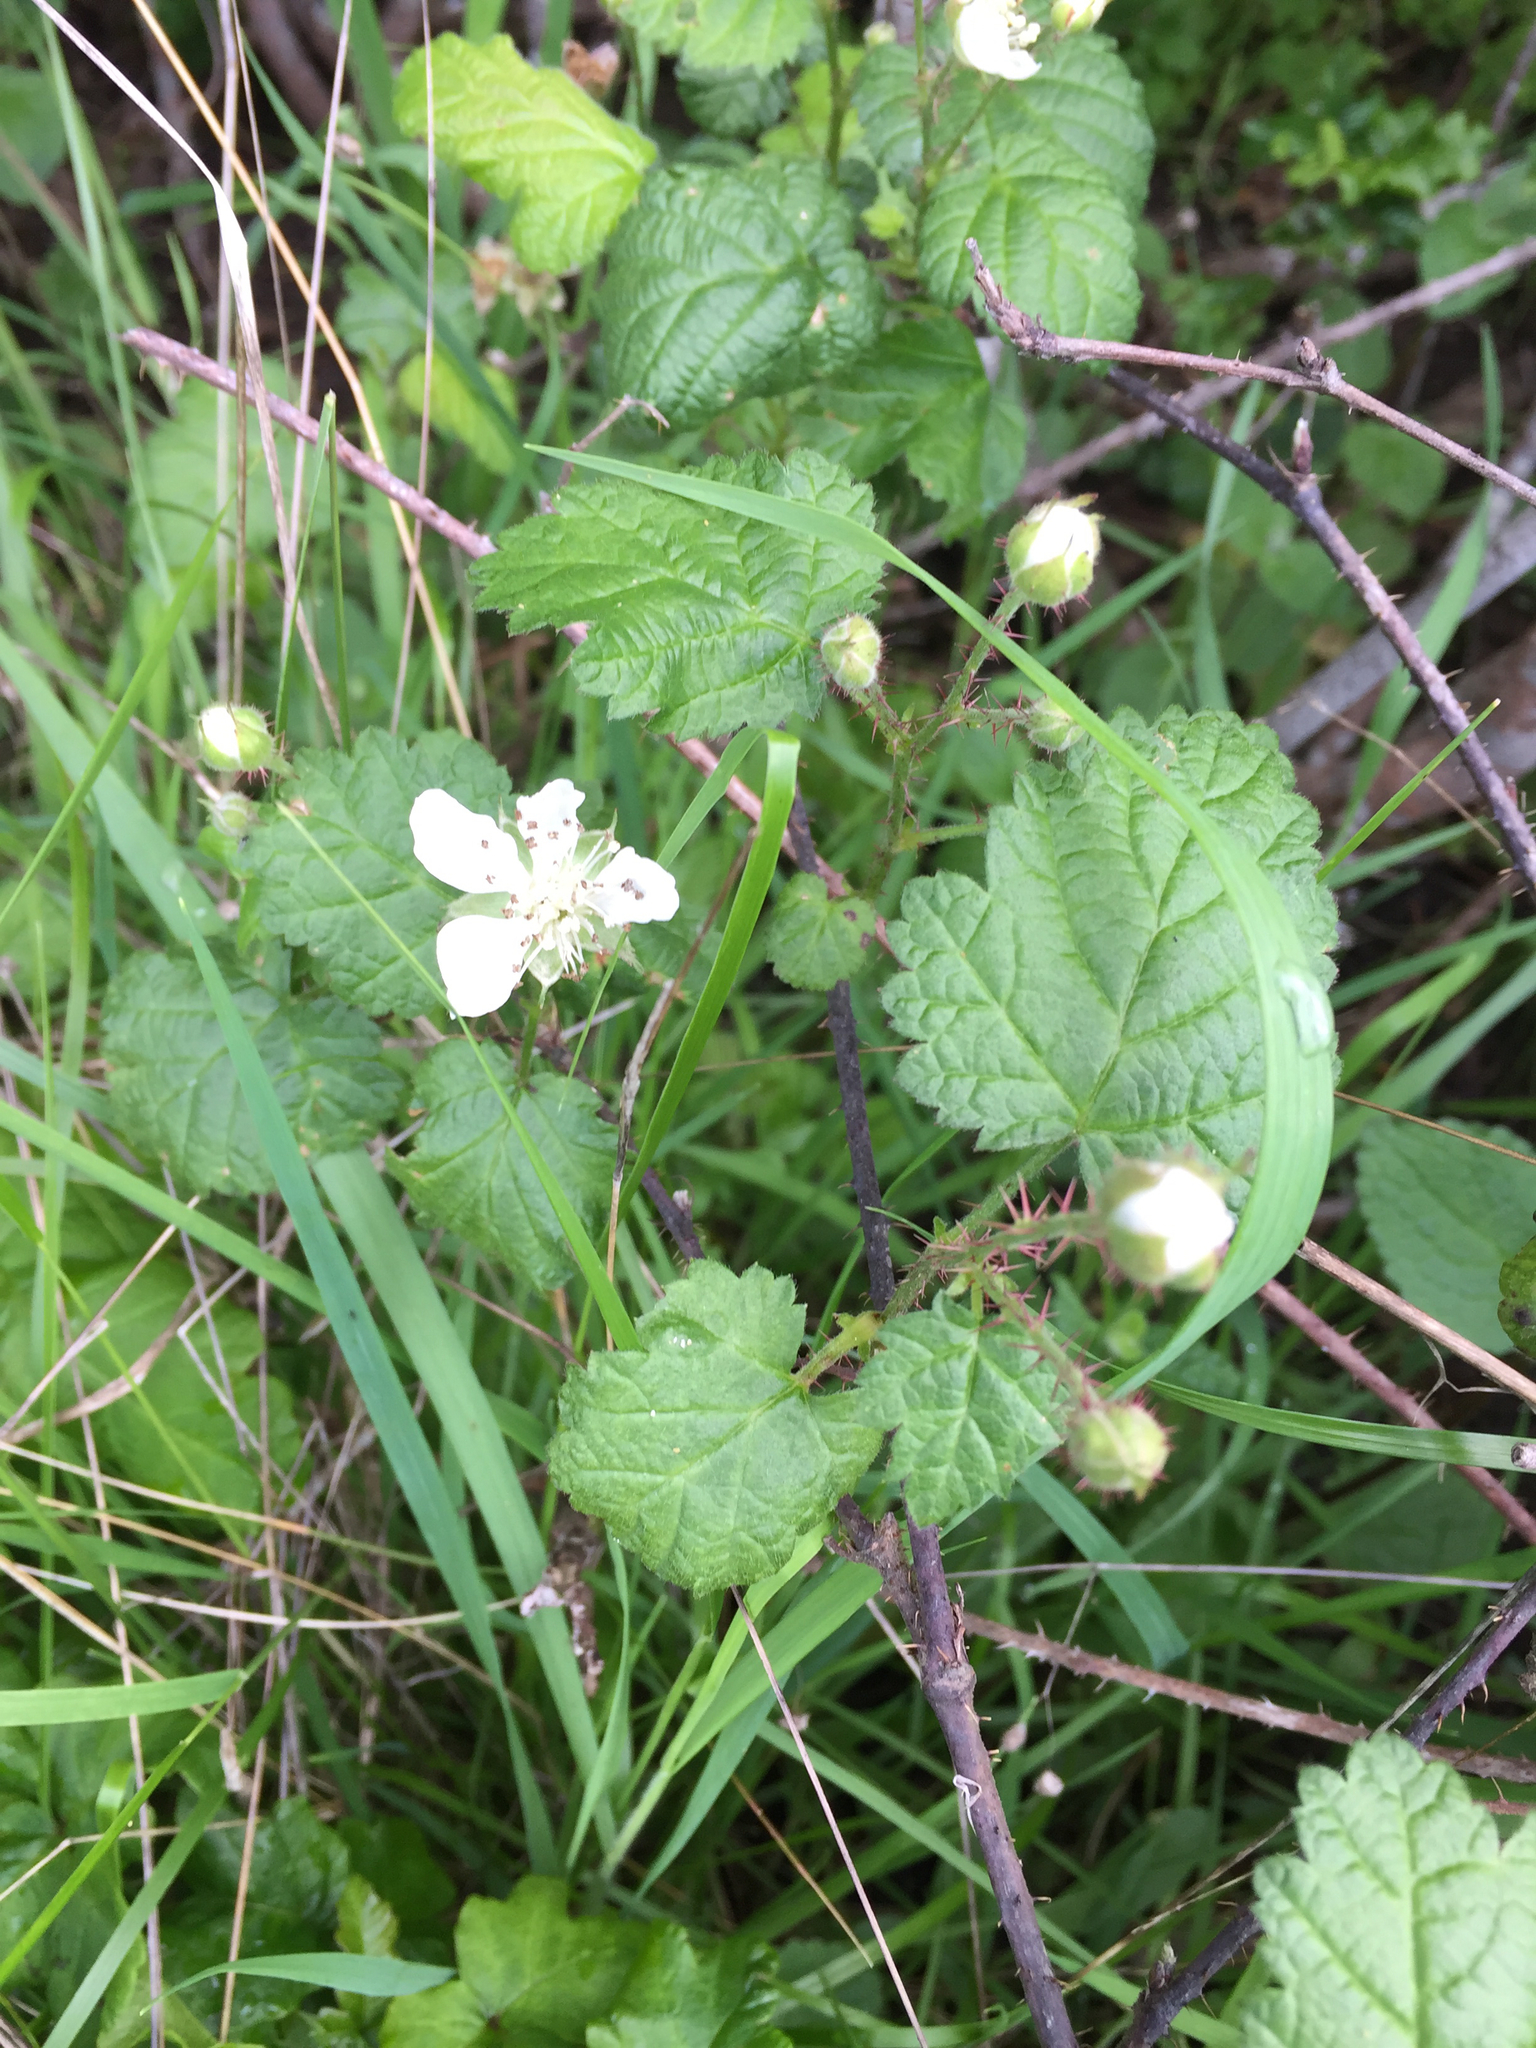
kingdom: Plantae
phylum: Tracheophyta
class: Magnoliopsida
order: Rosales
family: Rosaceae
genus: Rubus
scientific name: Rubus ursinus
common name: Pacific blackberry
